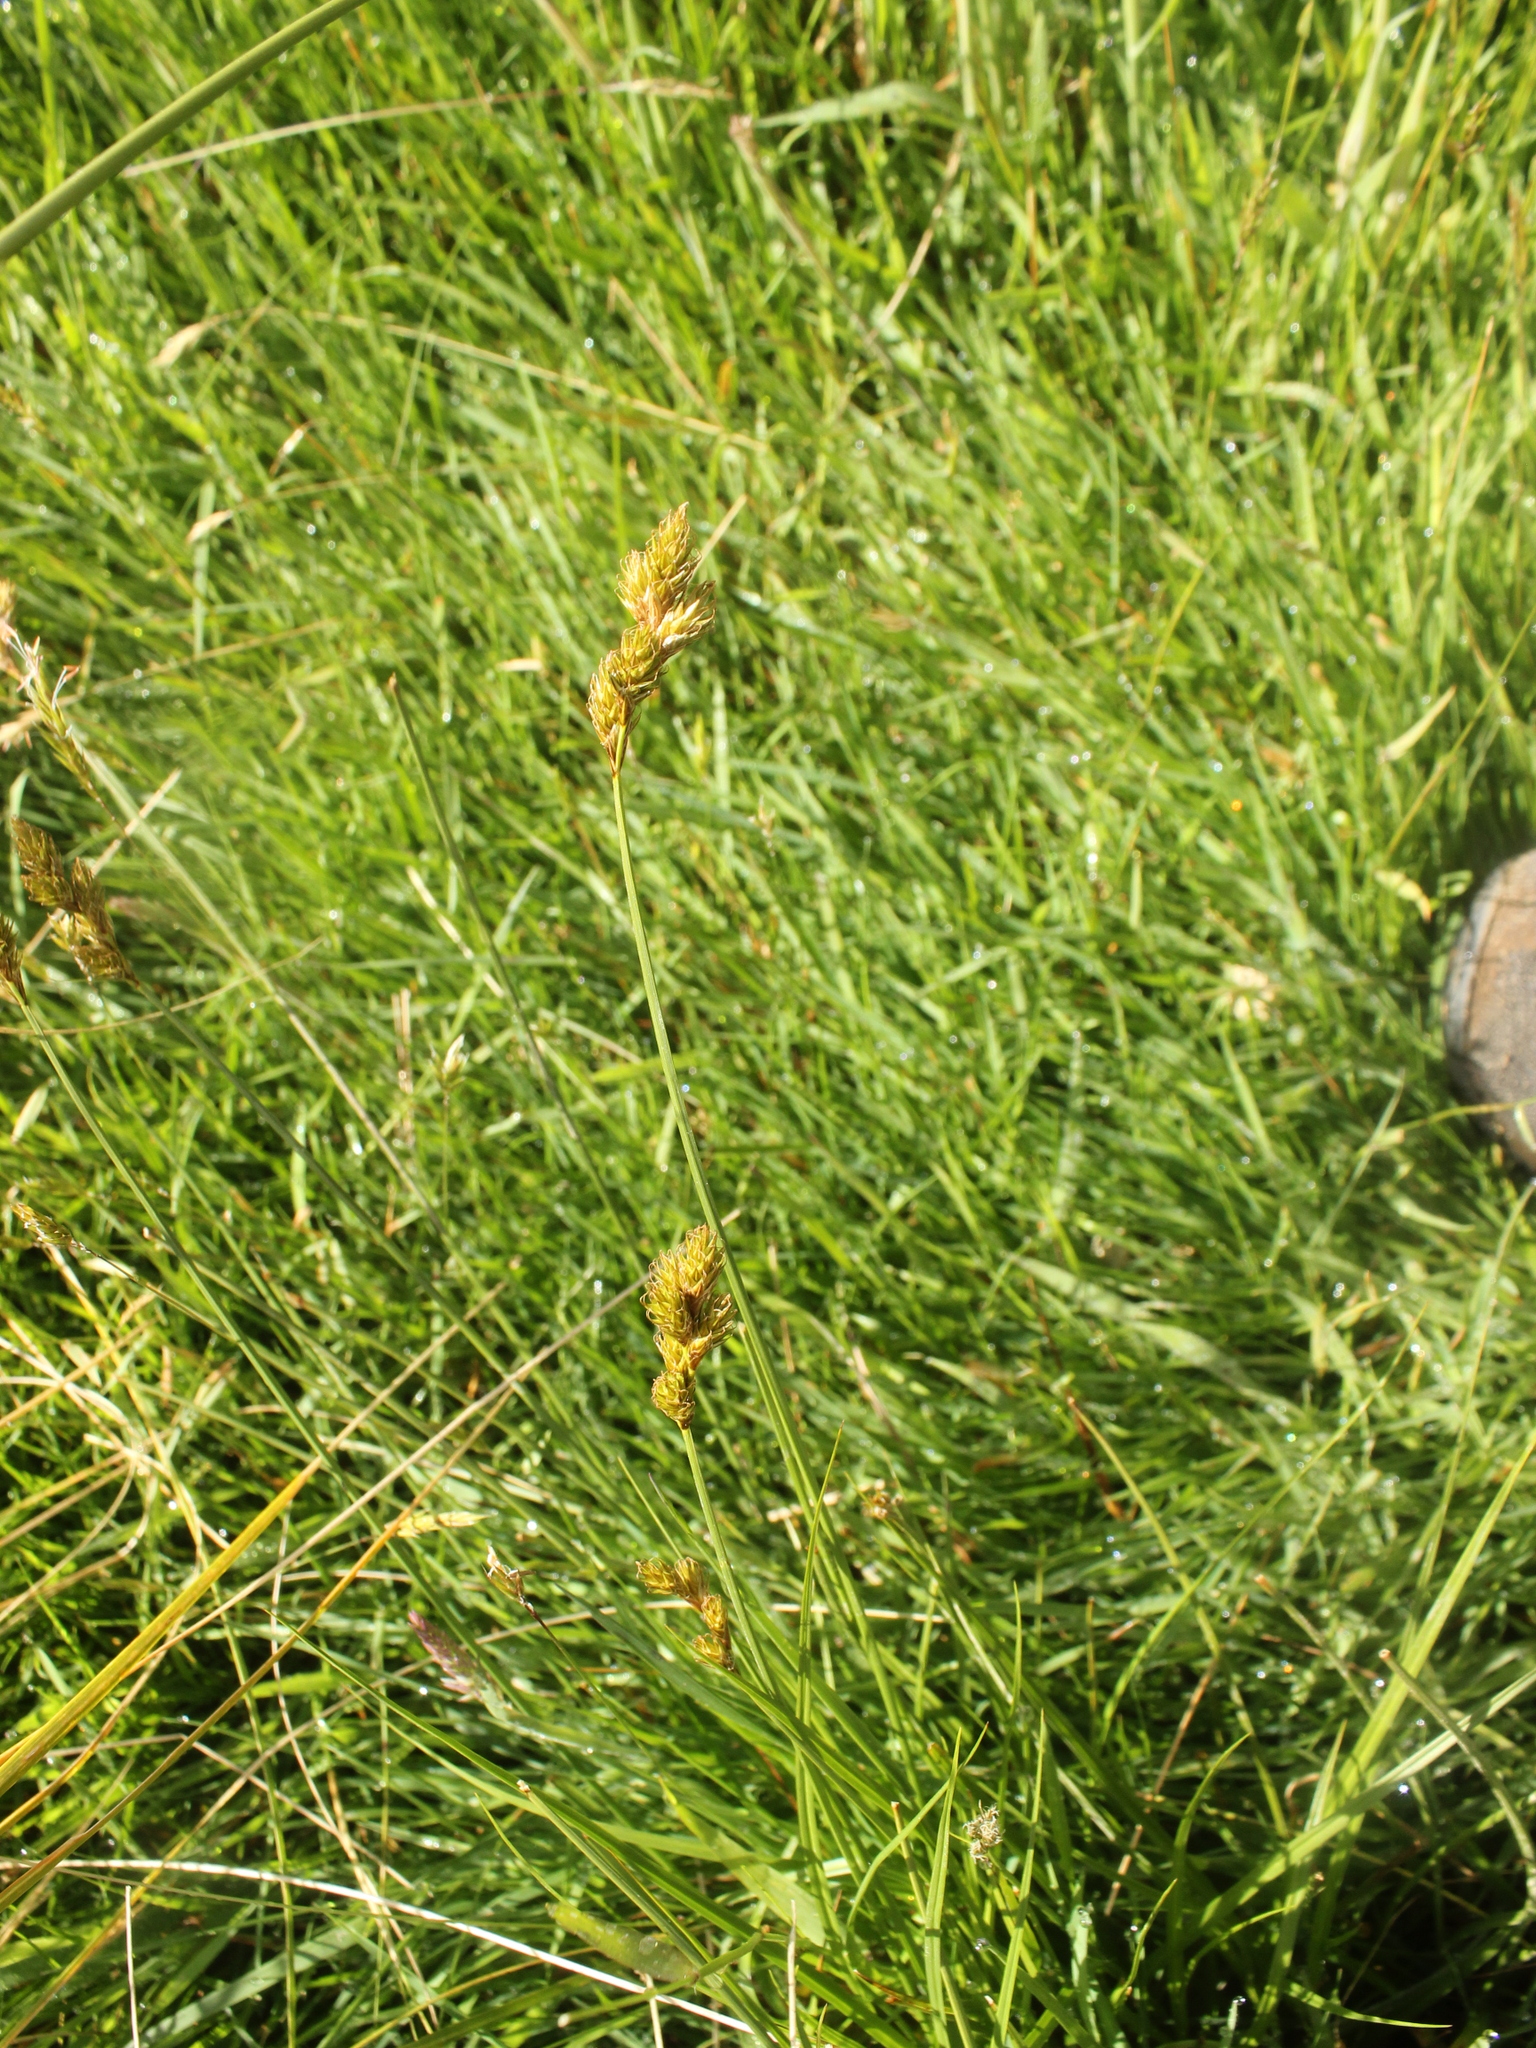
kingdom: Plantae
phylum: Tracheophyta
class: Liliopsida
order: Poales
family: Cyperaceae
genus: Carex
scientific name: Carex leporina
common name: Oval sedge
